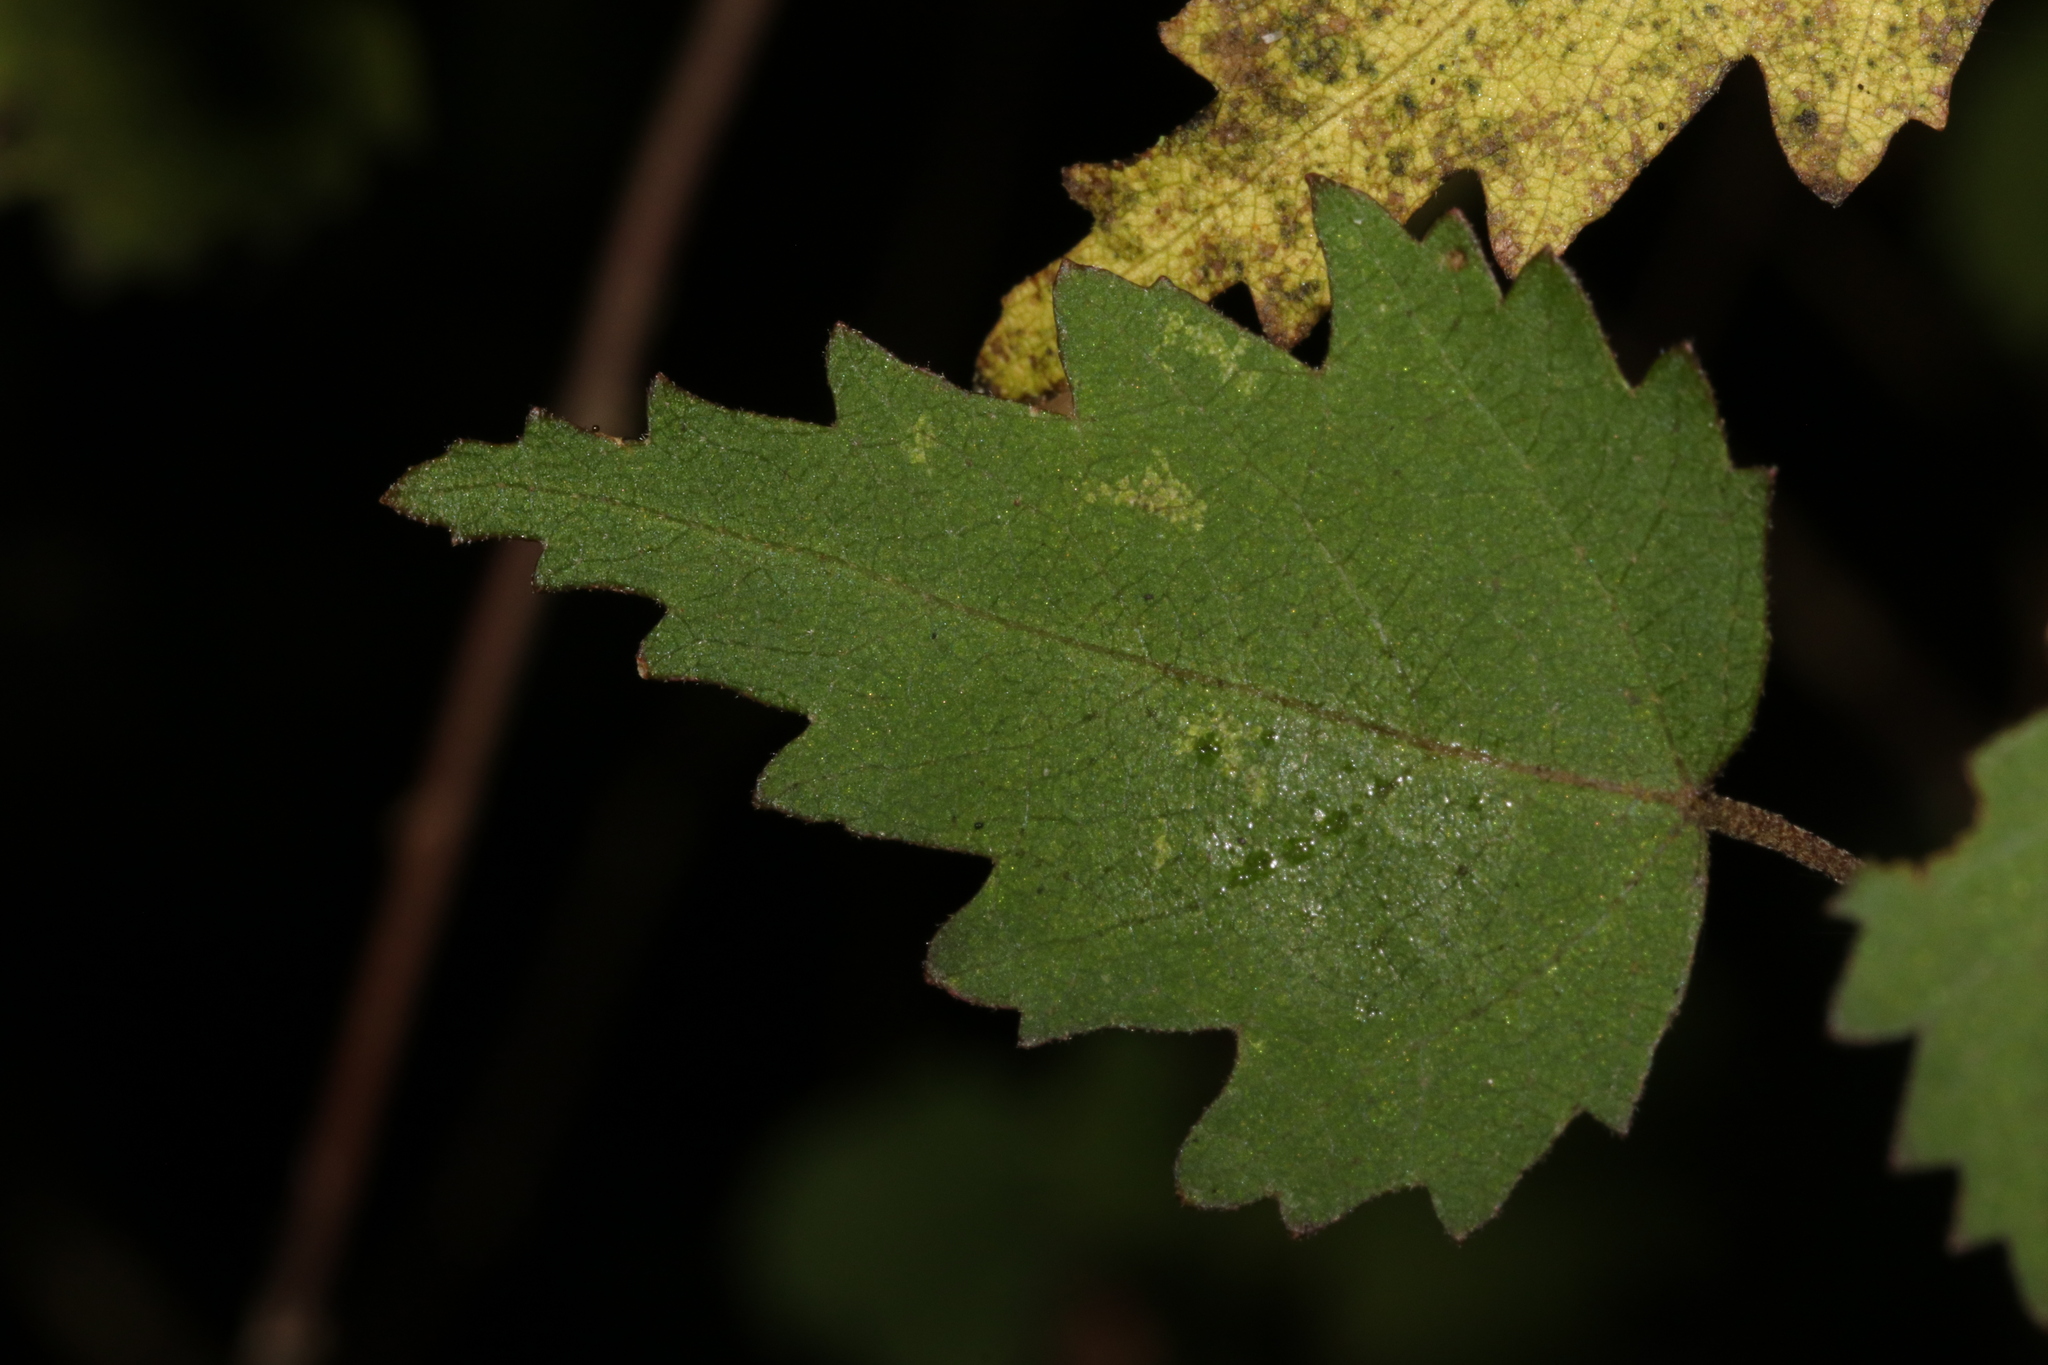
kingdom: Plantae
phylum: Tracheophyta
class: Magnoliopsida
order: Malvales
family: Malvaceae
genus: Hoheria
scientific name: Hoheria sexstylosa
